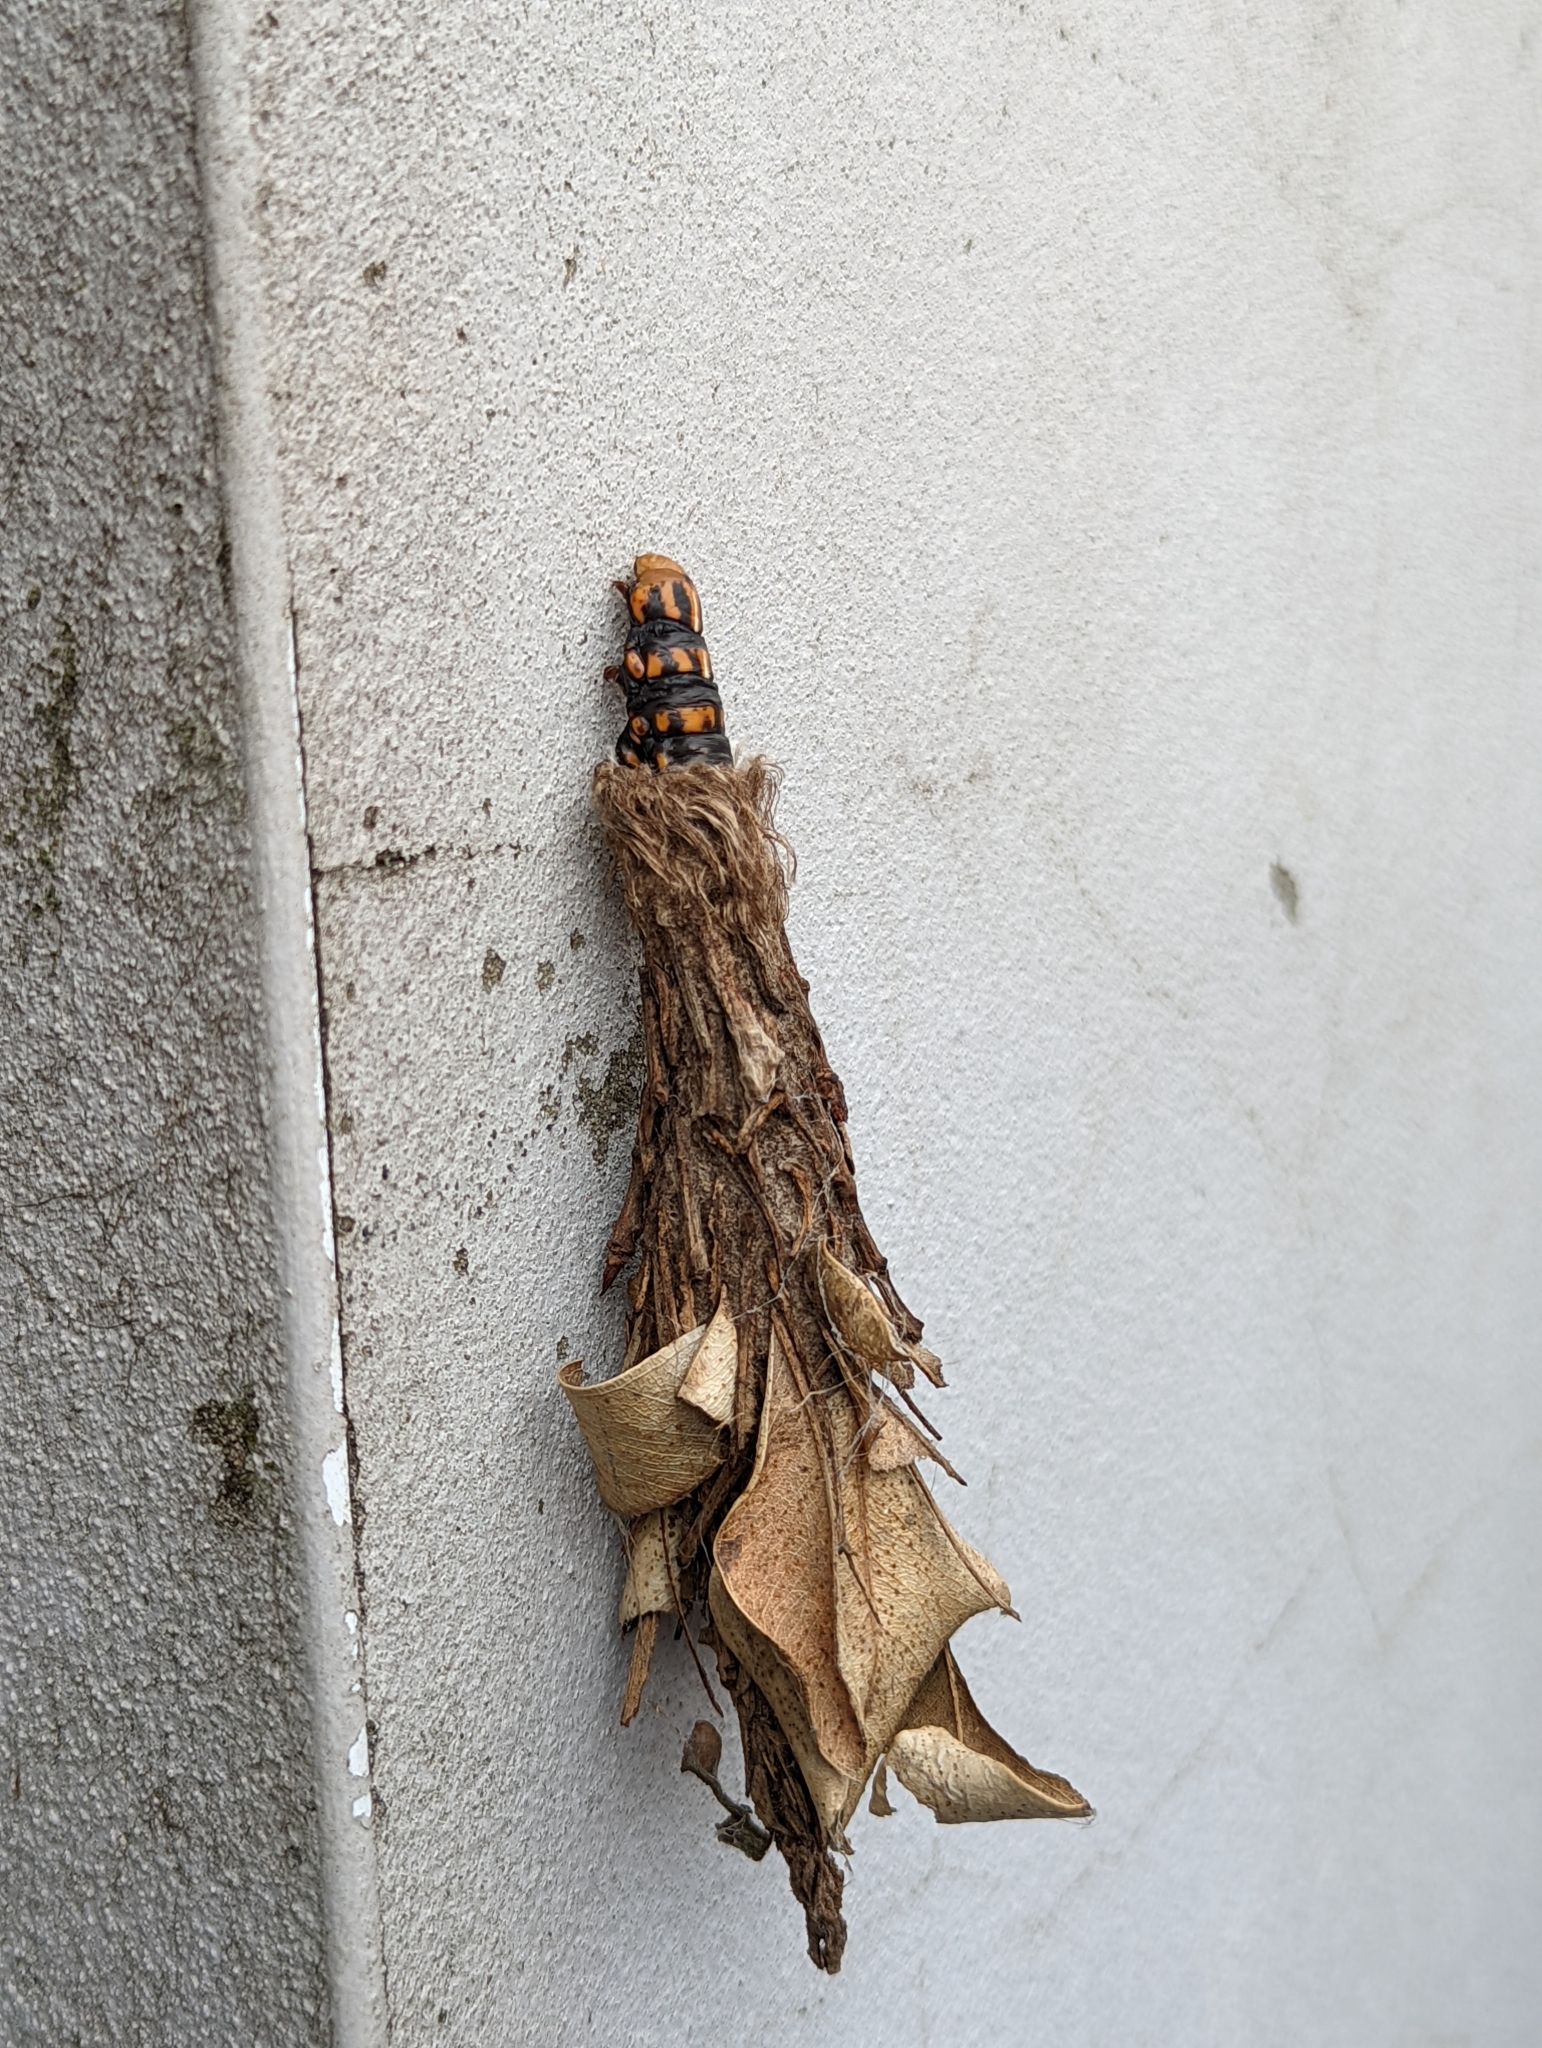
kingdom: Animalia
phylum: Arthropoda
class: Insecta
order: Lepidoptera
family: Psychidae
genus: Metura
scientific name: Metura elongatus
